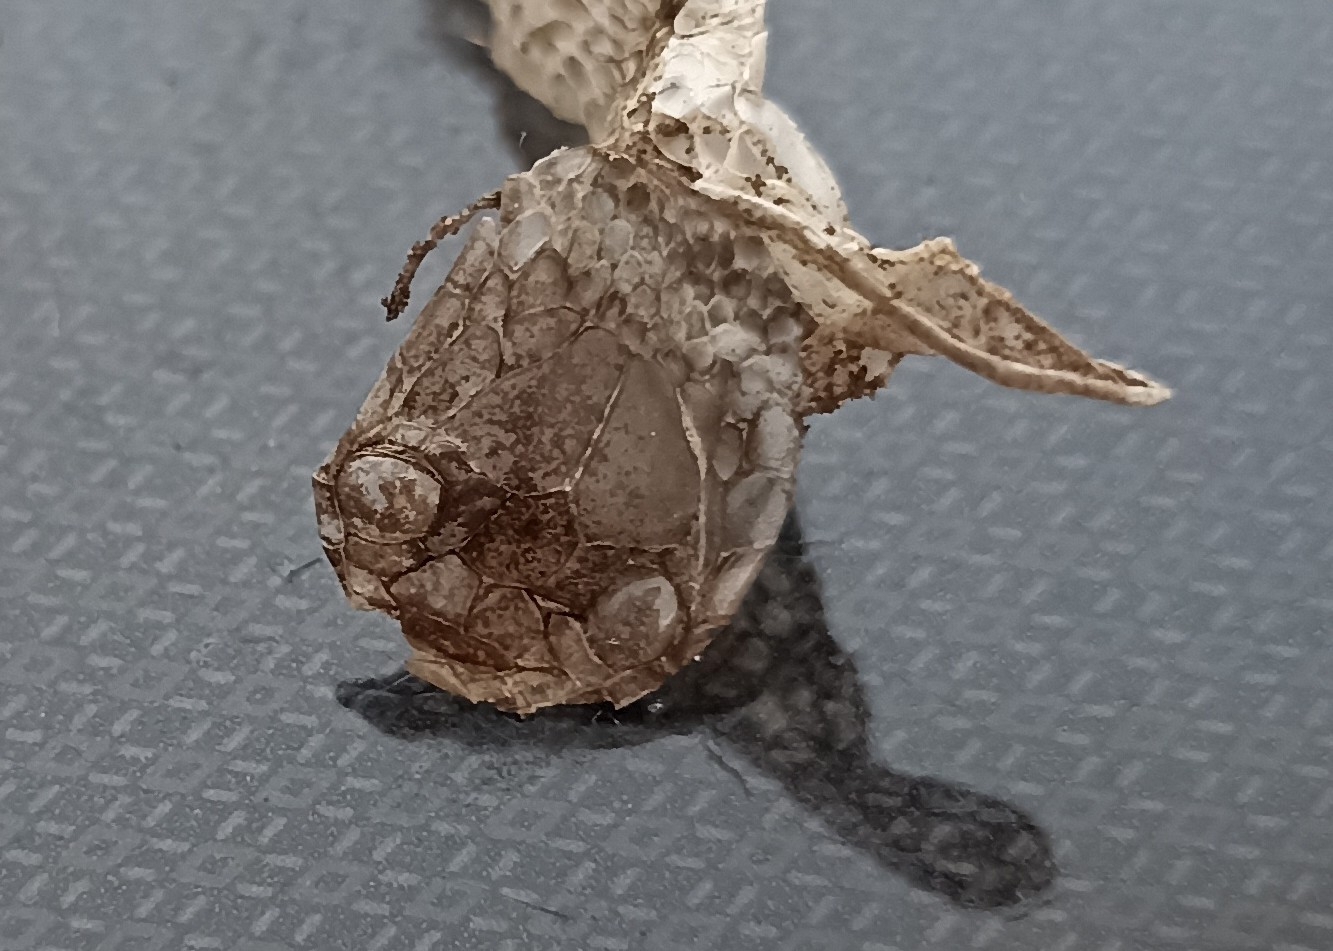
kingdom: Animalia
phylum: Chordata
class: Squamata
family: Colubridae
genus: Natrix
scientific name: Natrix helvetica
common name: Banded grass snake
